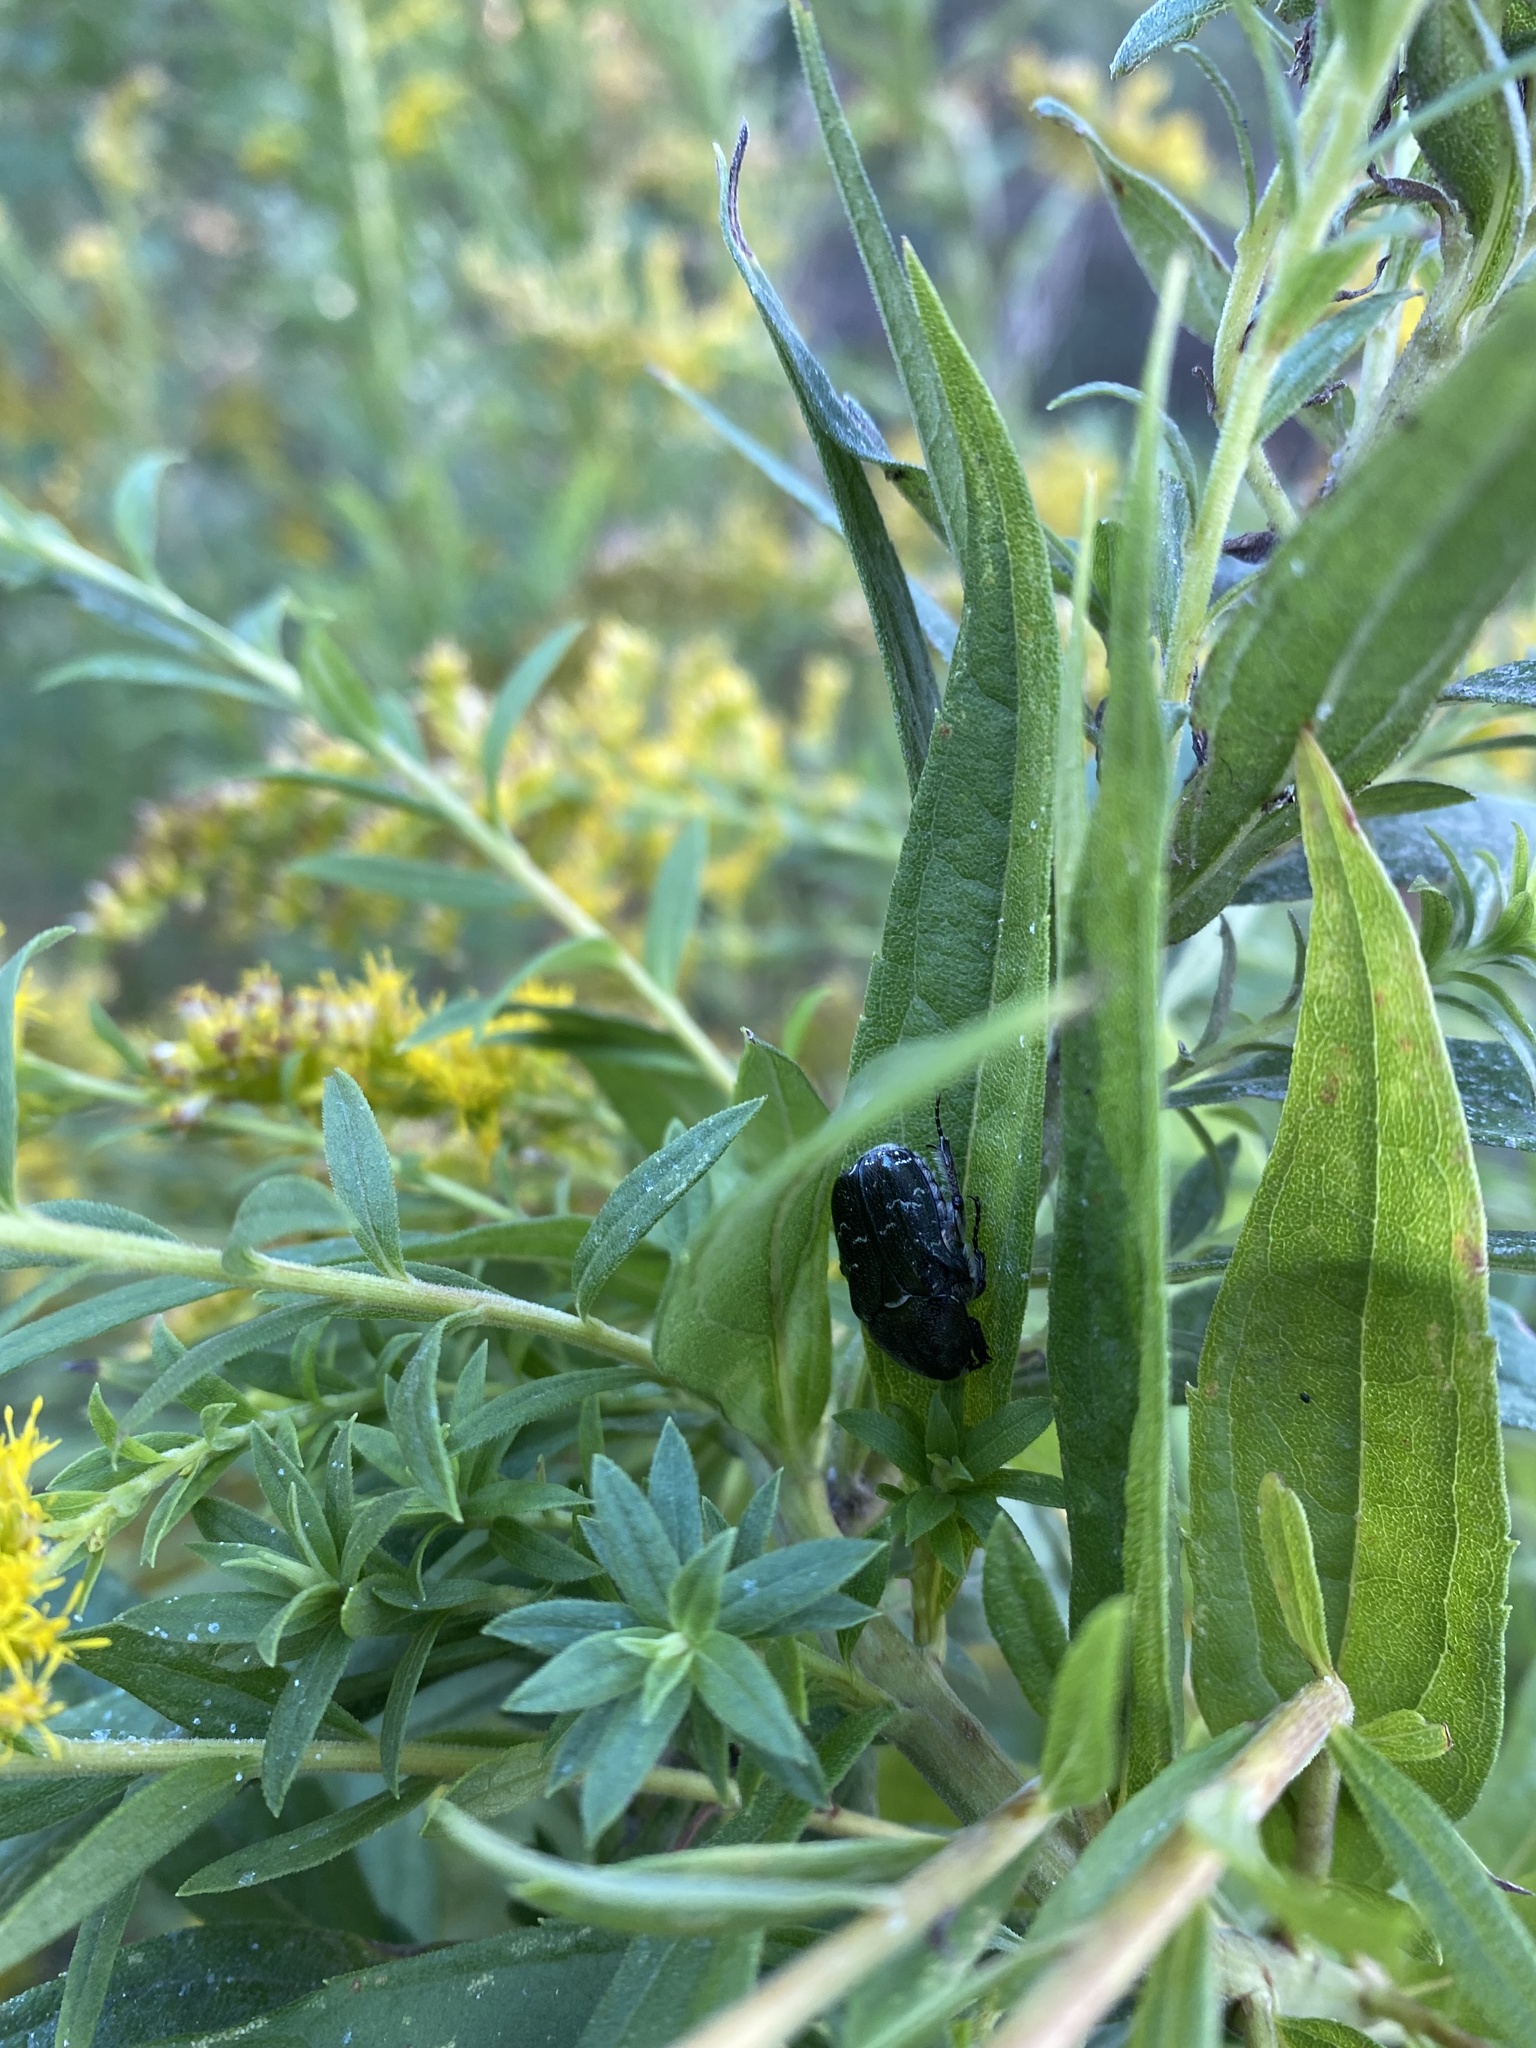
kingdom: Animalia
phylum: Arthropoda
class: Insecta
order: Coleoptera
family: Scarabaeidae
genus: Euphoria
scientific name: Euphoria sepulcralis
